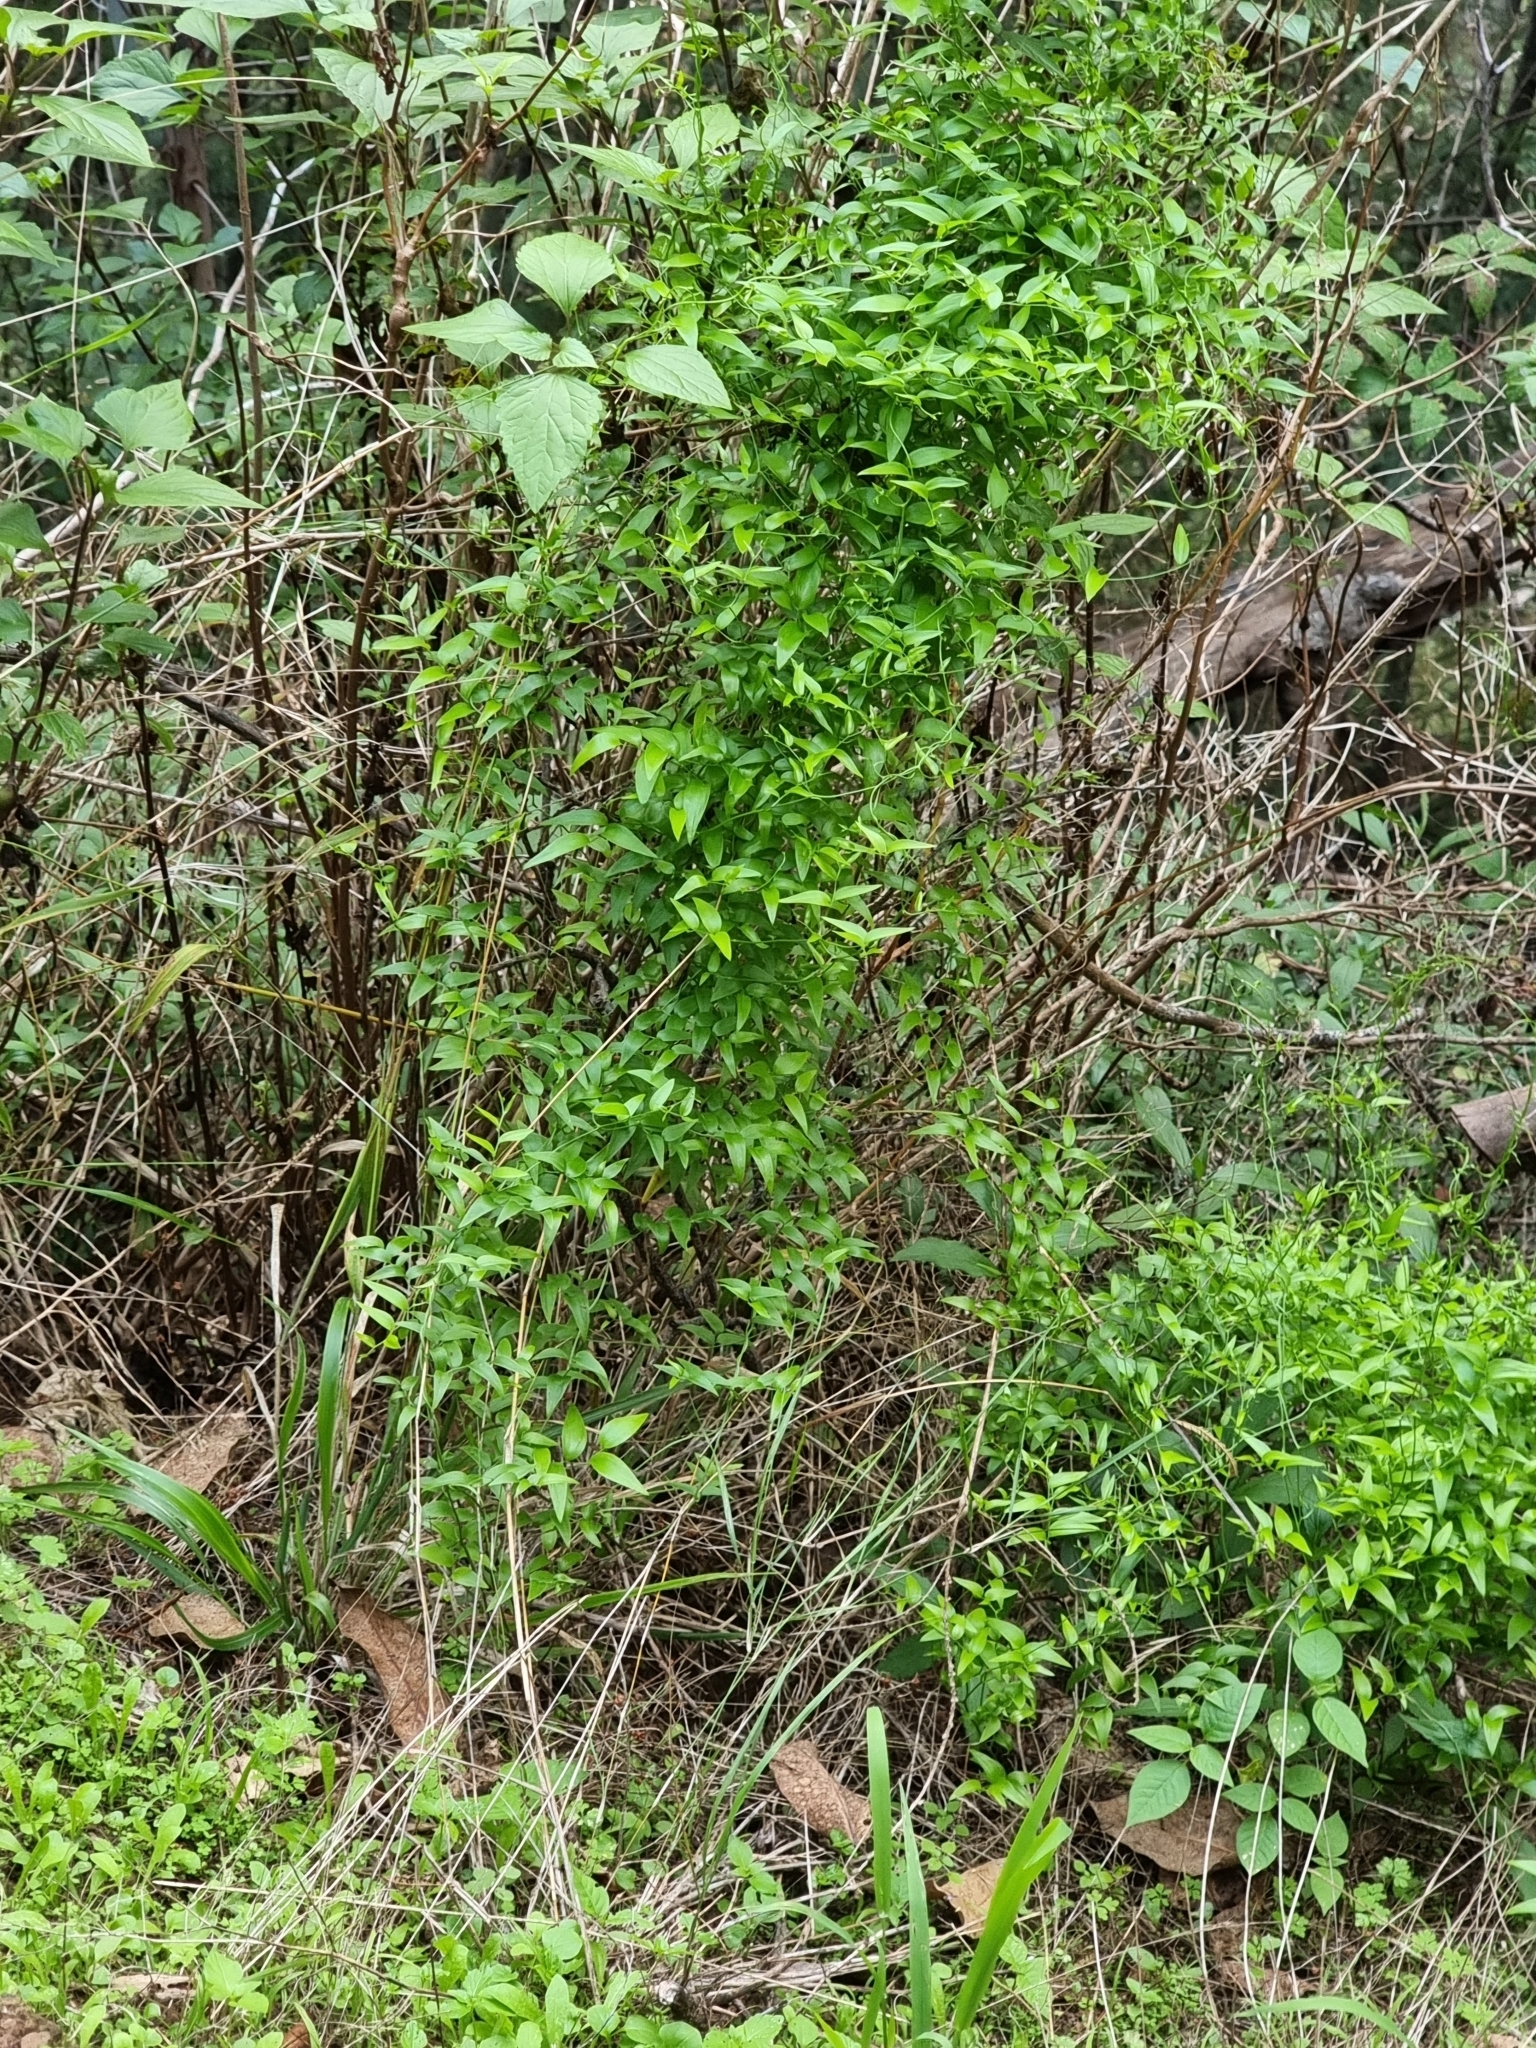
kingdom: Plantae
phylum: Tracheophyta
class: Liliopsida
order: Asparagales
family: Asparagaceae
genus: Asparagus
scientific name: Asparagus asparagoides
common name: African asparagus fern
